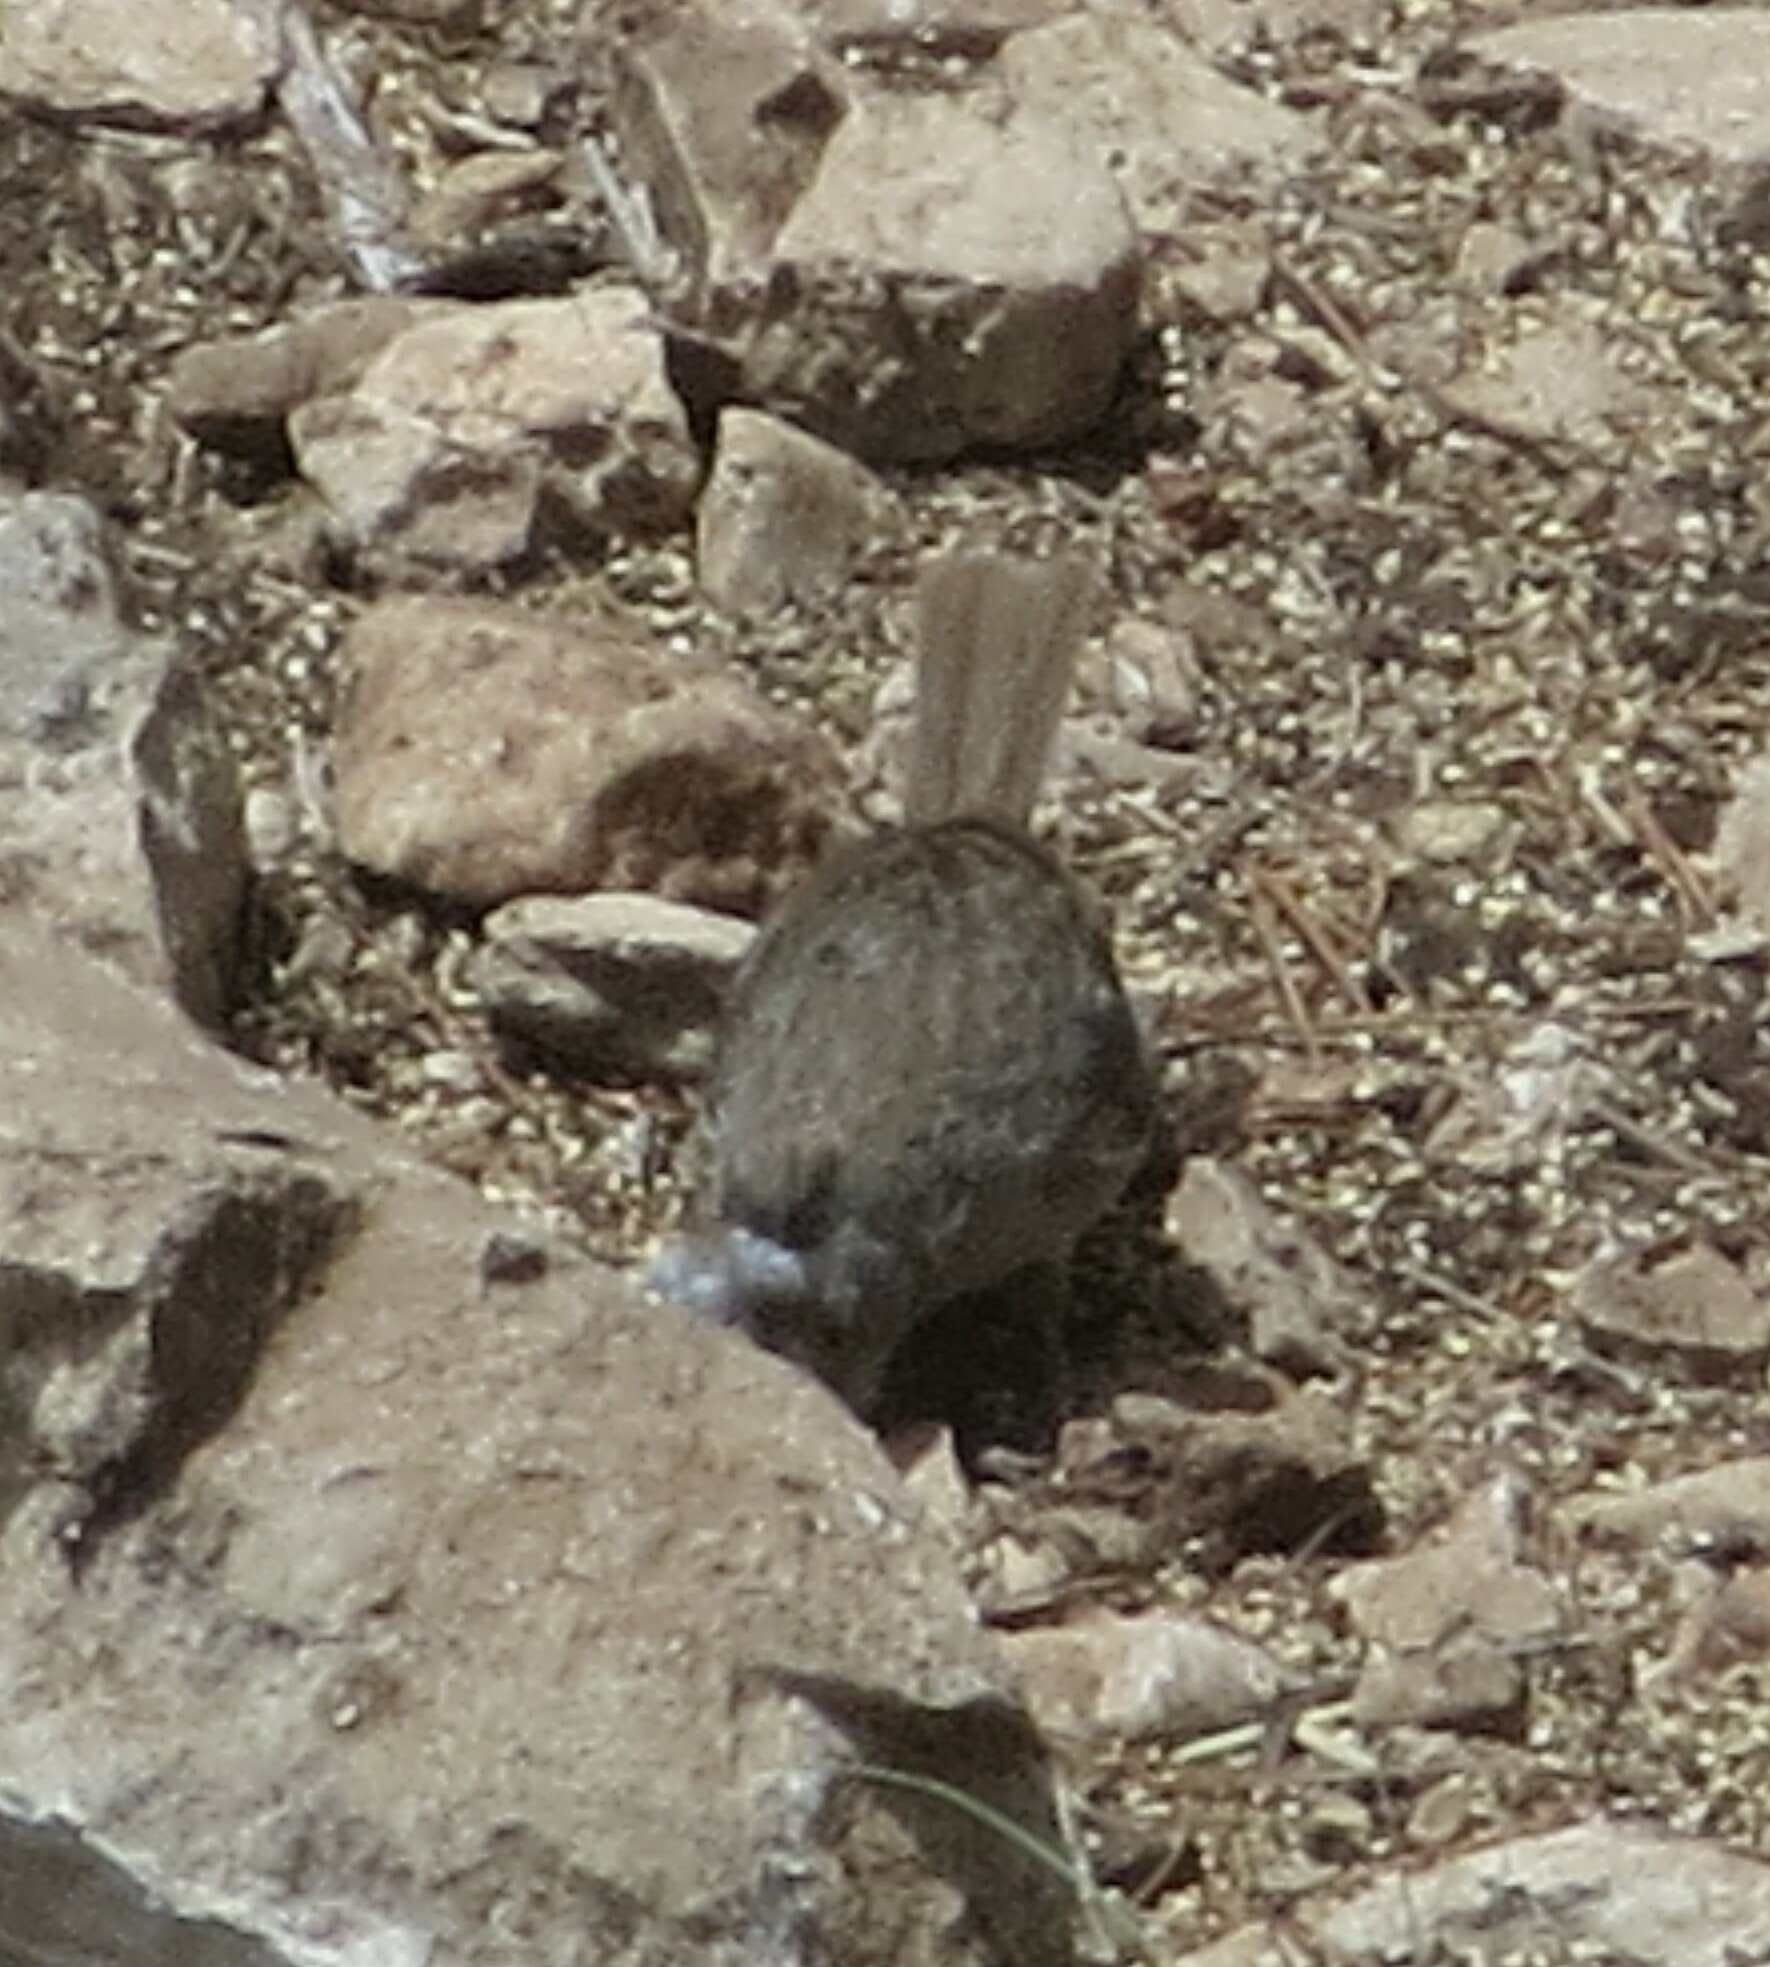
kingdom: Animalia
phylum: Chordata
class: Aves
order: Passeriformes
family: Passerellidae
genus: Aimophila
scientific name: Aimophila ruficeps
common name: Rufous-crowned sparrow
